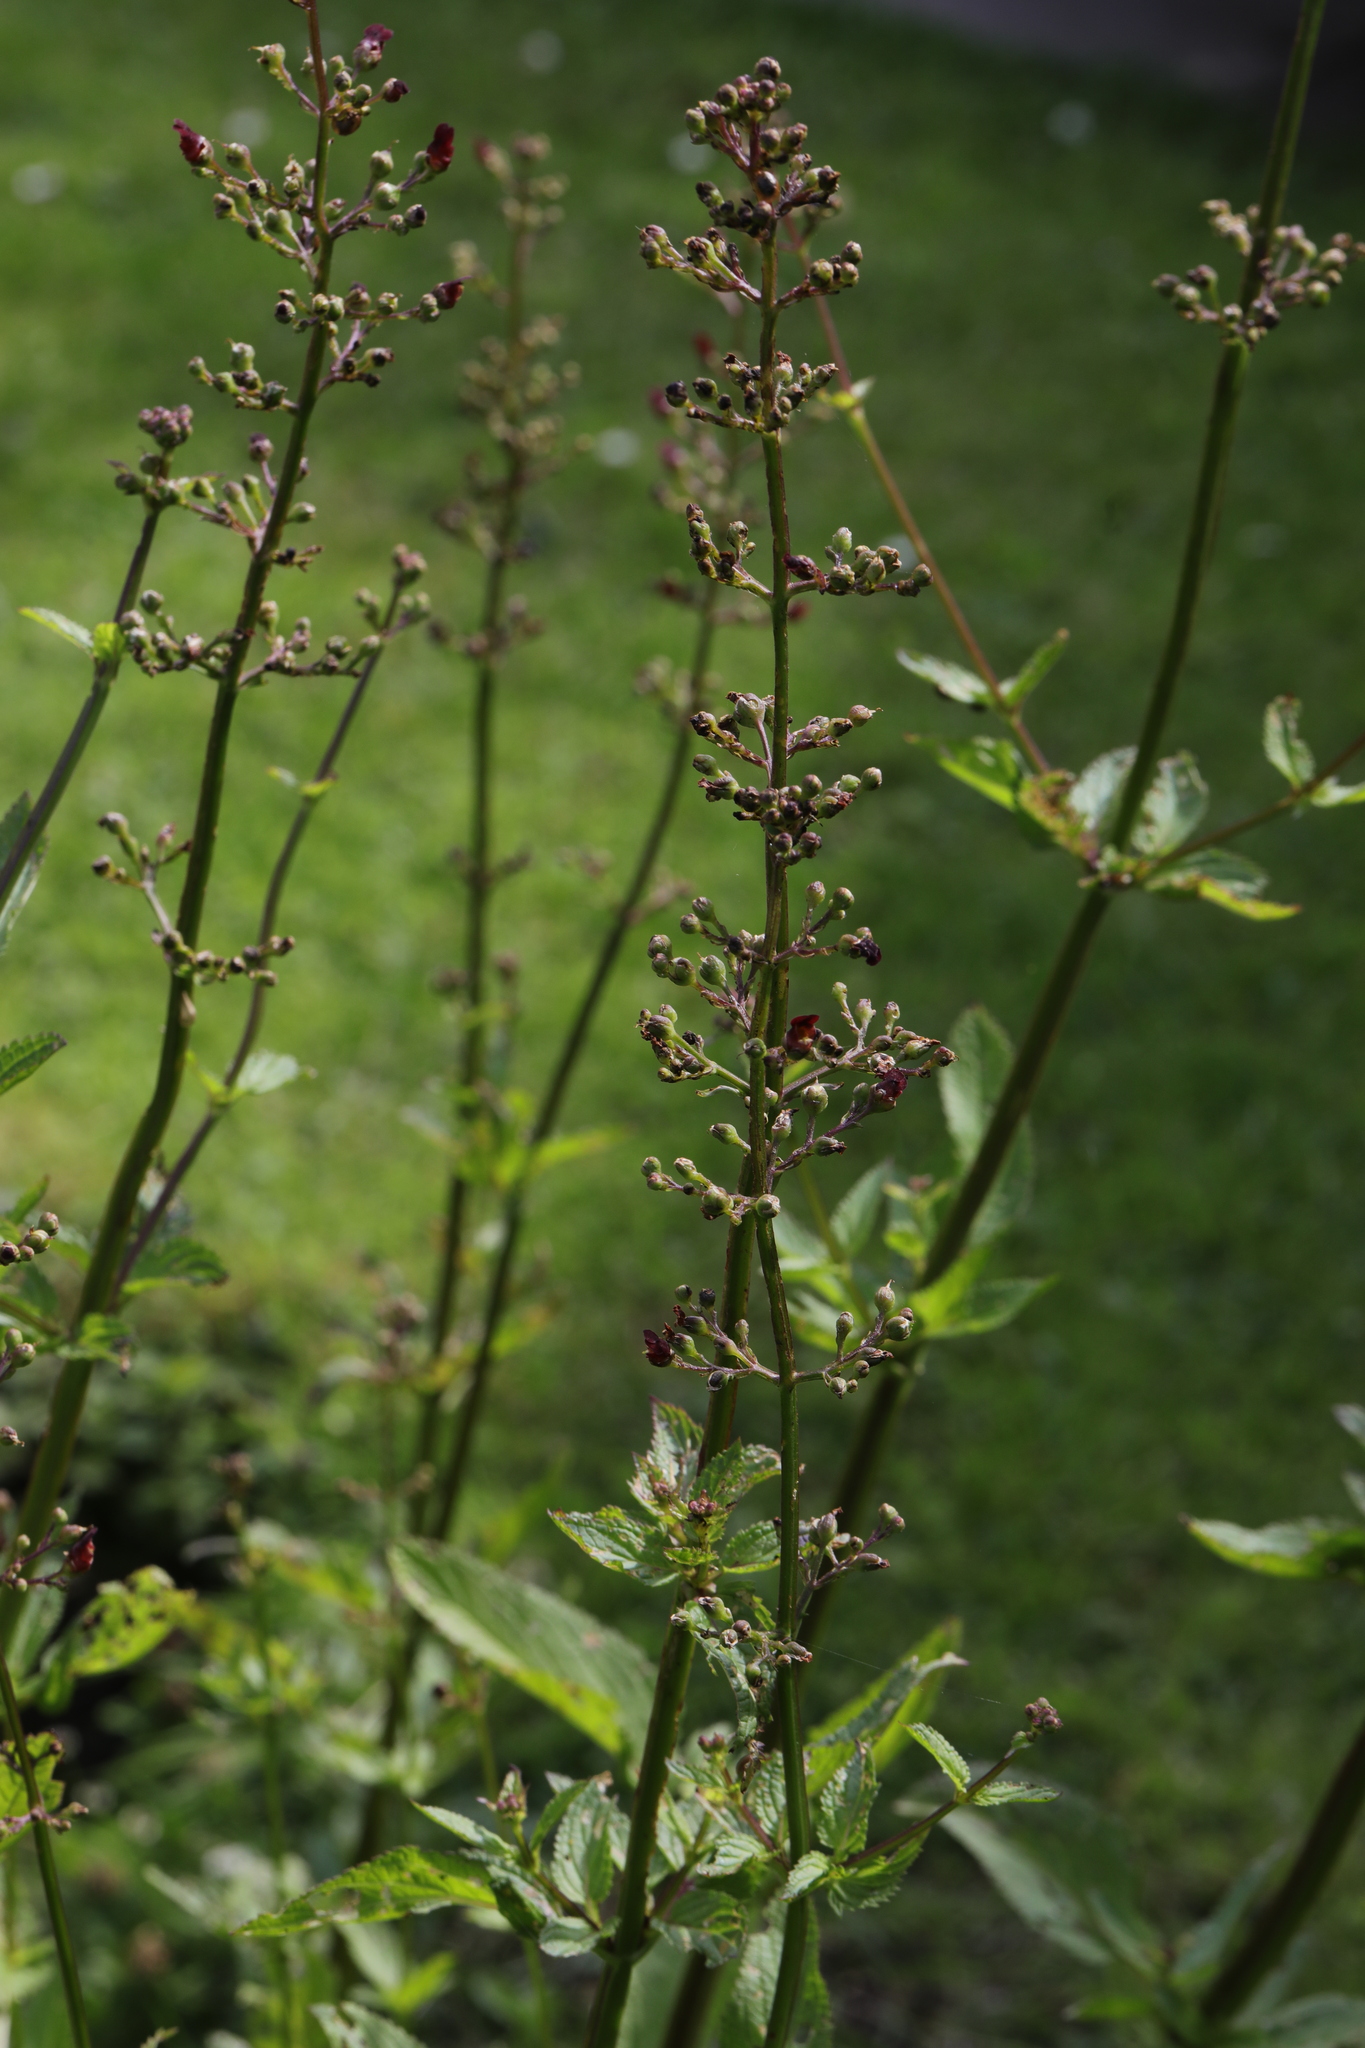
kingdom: Plantae
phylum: Tracheophyta
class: Magnoliopsida
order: Lamiales
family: Scrophulariaceae
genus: Scrophularia
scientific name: Scrophularia auriculata
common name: Water betony
